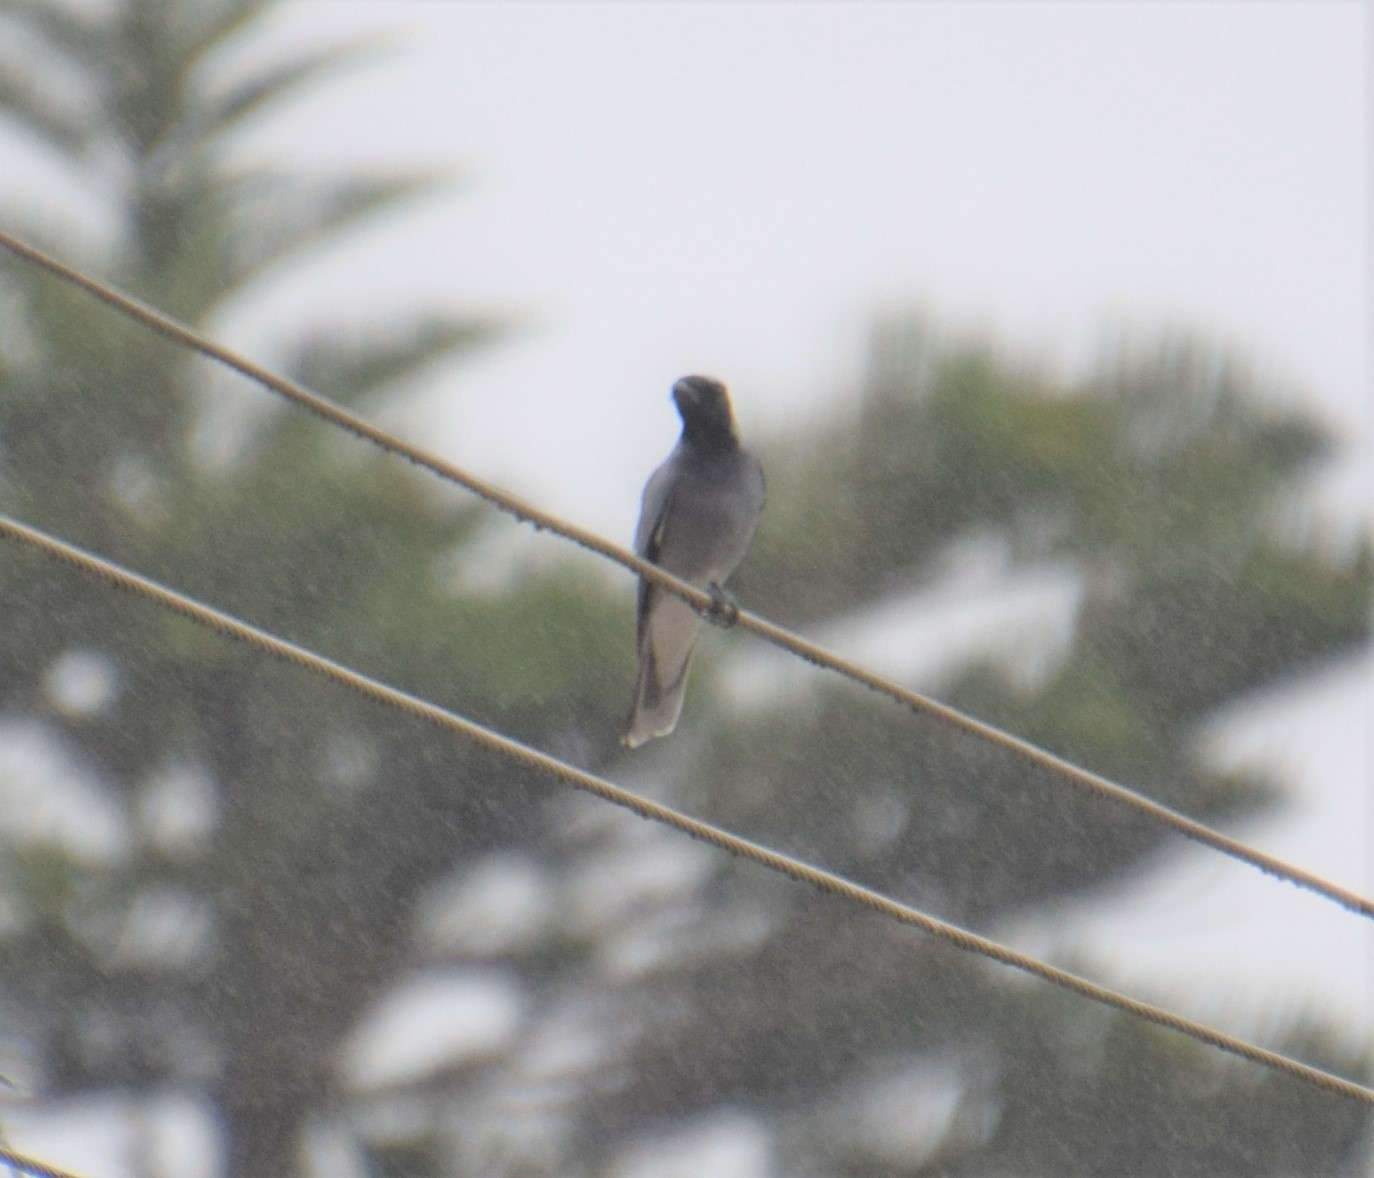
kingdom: Animalia
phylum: Chordata
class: Aves
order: Passeriformes
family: Campephagidae
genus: Coracina
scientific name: Coracina novaehollandiae
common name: Black-faced cuckooshrike
